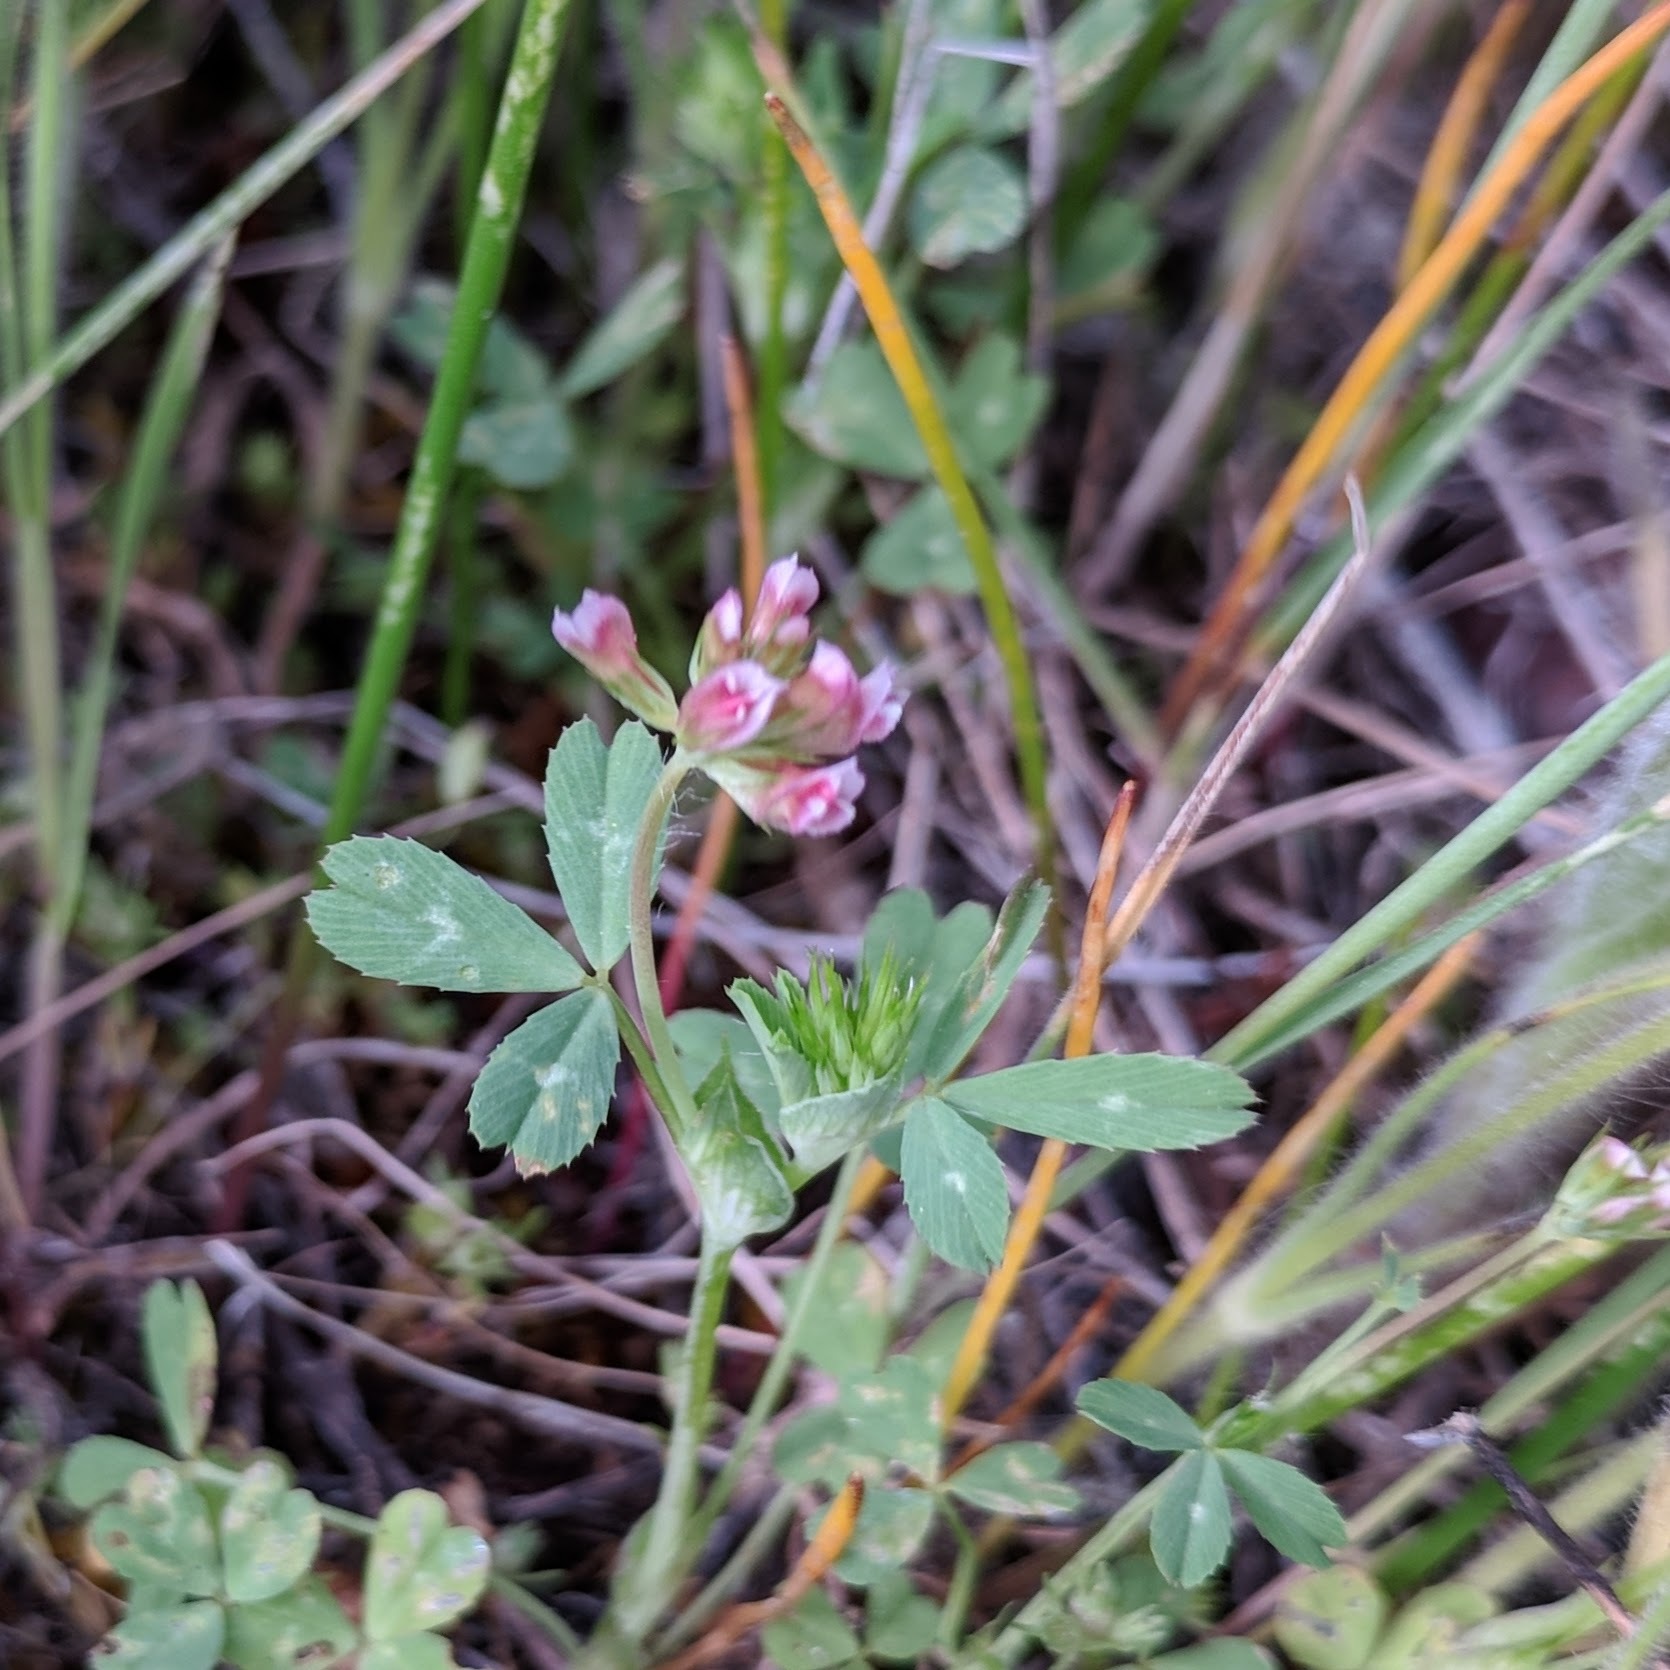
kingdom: Plantae
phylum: Tracheophyta
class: Magnoliopsida
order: Fabales
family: Fabaceae
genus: Trifolium
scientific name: Trifolium bifidum
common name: Notch-leaf clover
